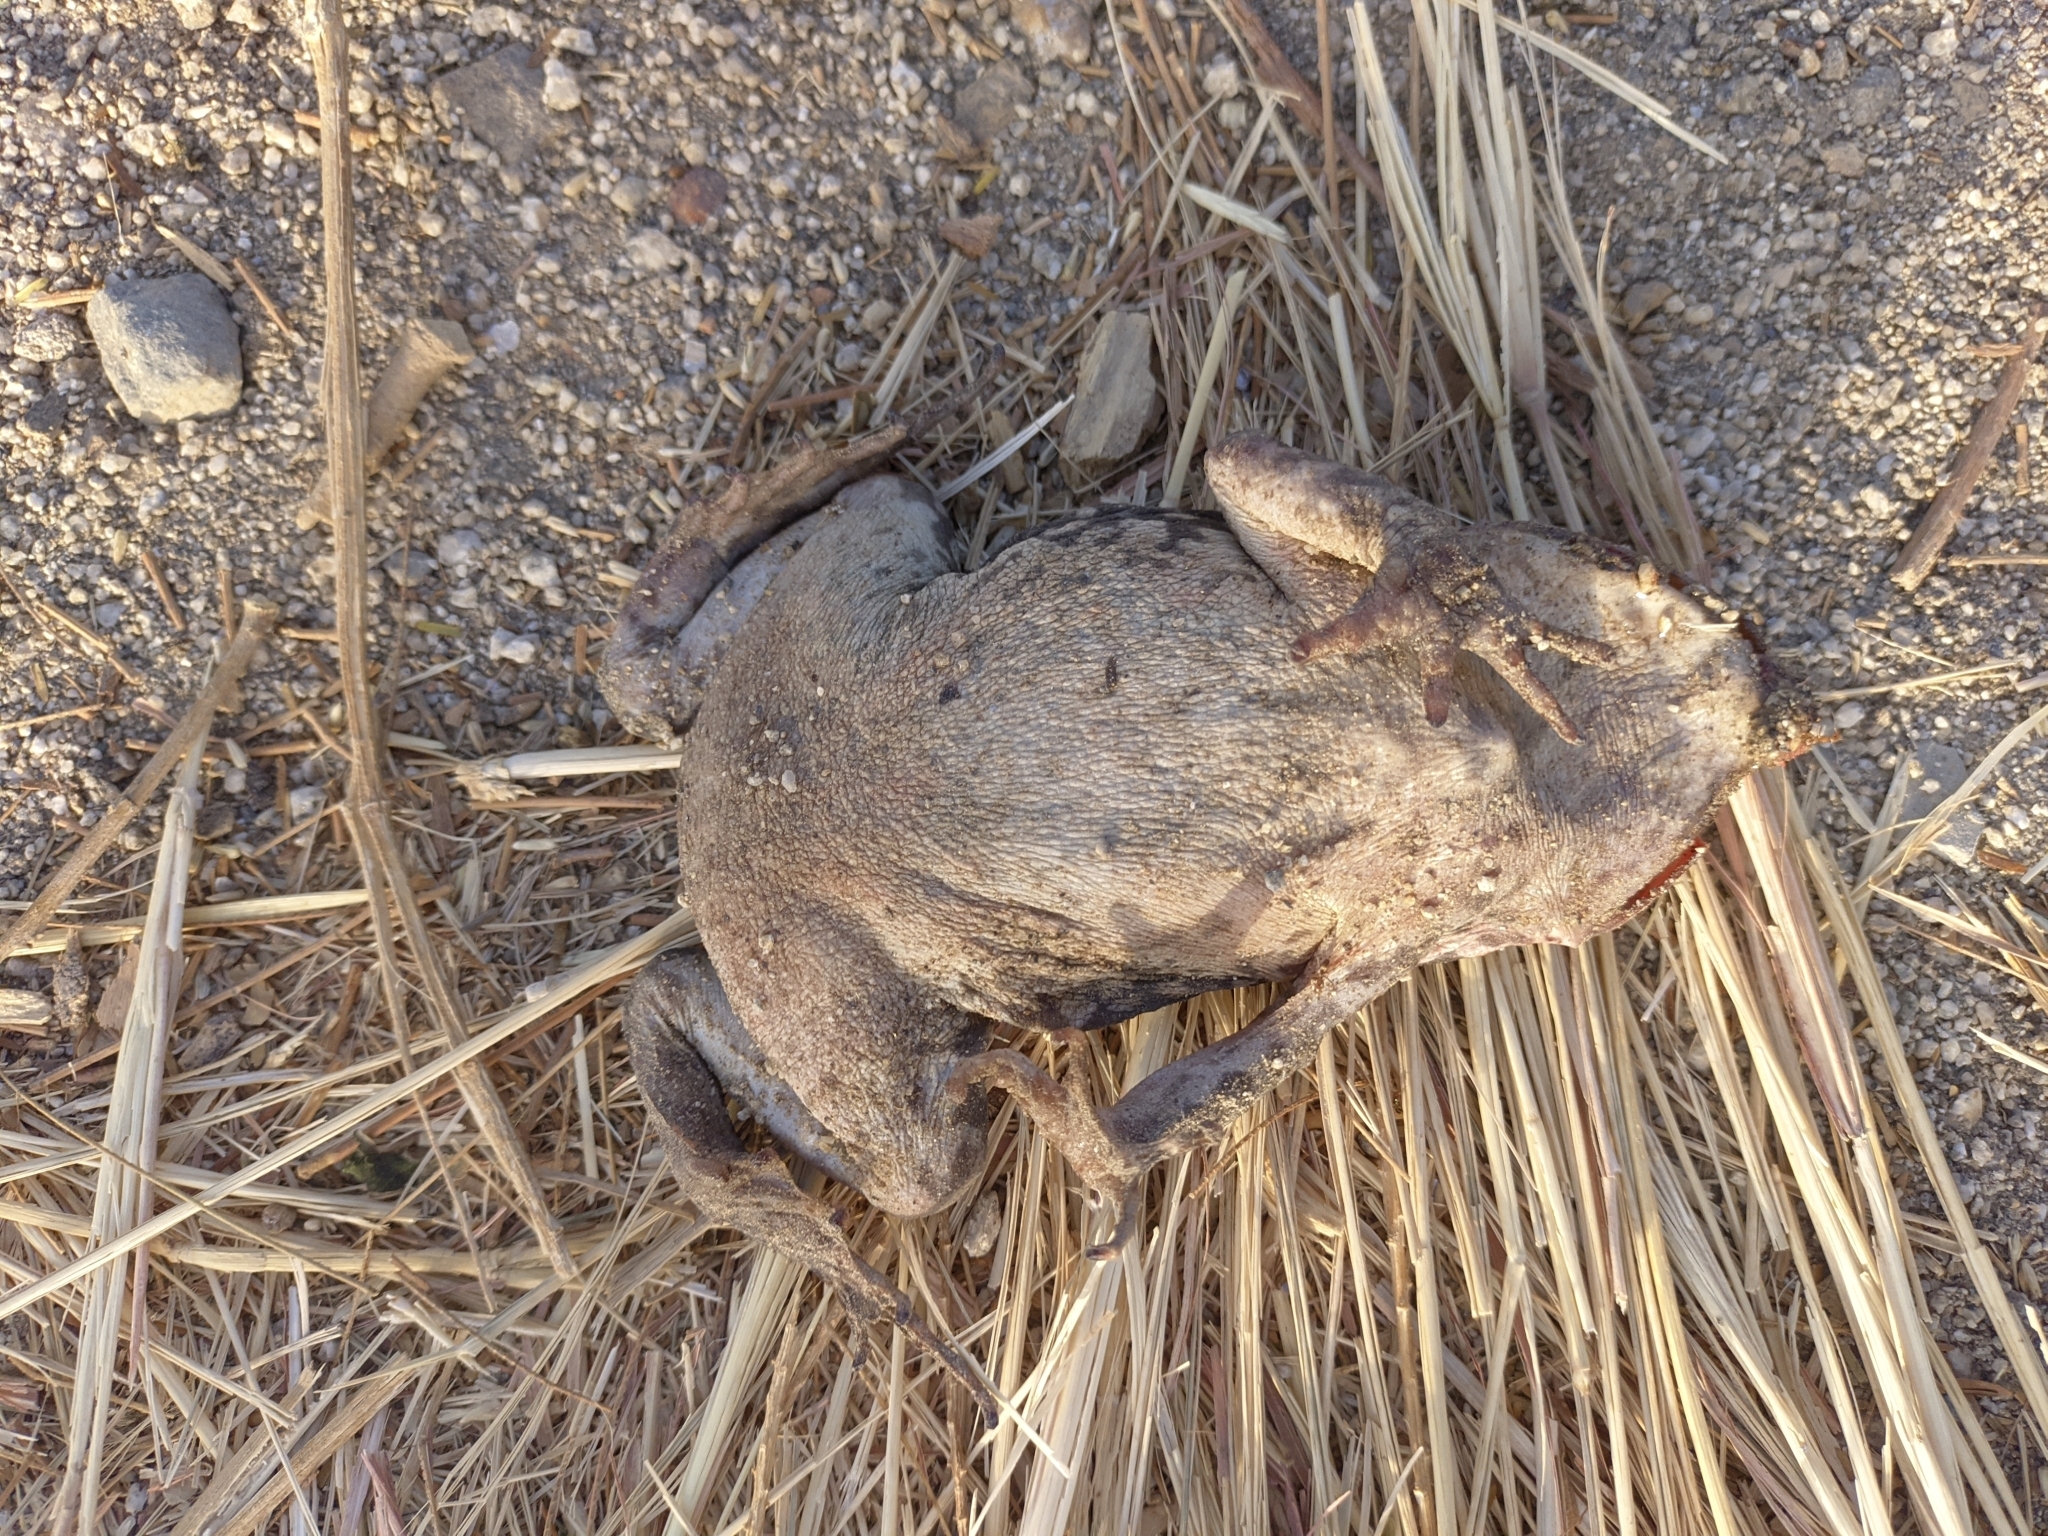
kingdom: Animalia
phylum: Chordata
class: Amphibia
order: Anura
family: Bufonidae
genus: Rhinella
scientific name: Rhinella horribilis
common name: Mesoamerican cane toad
